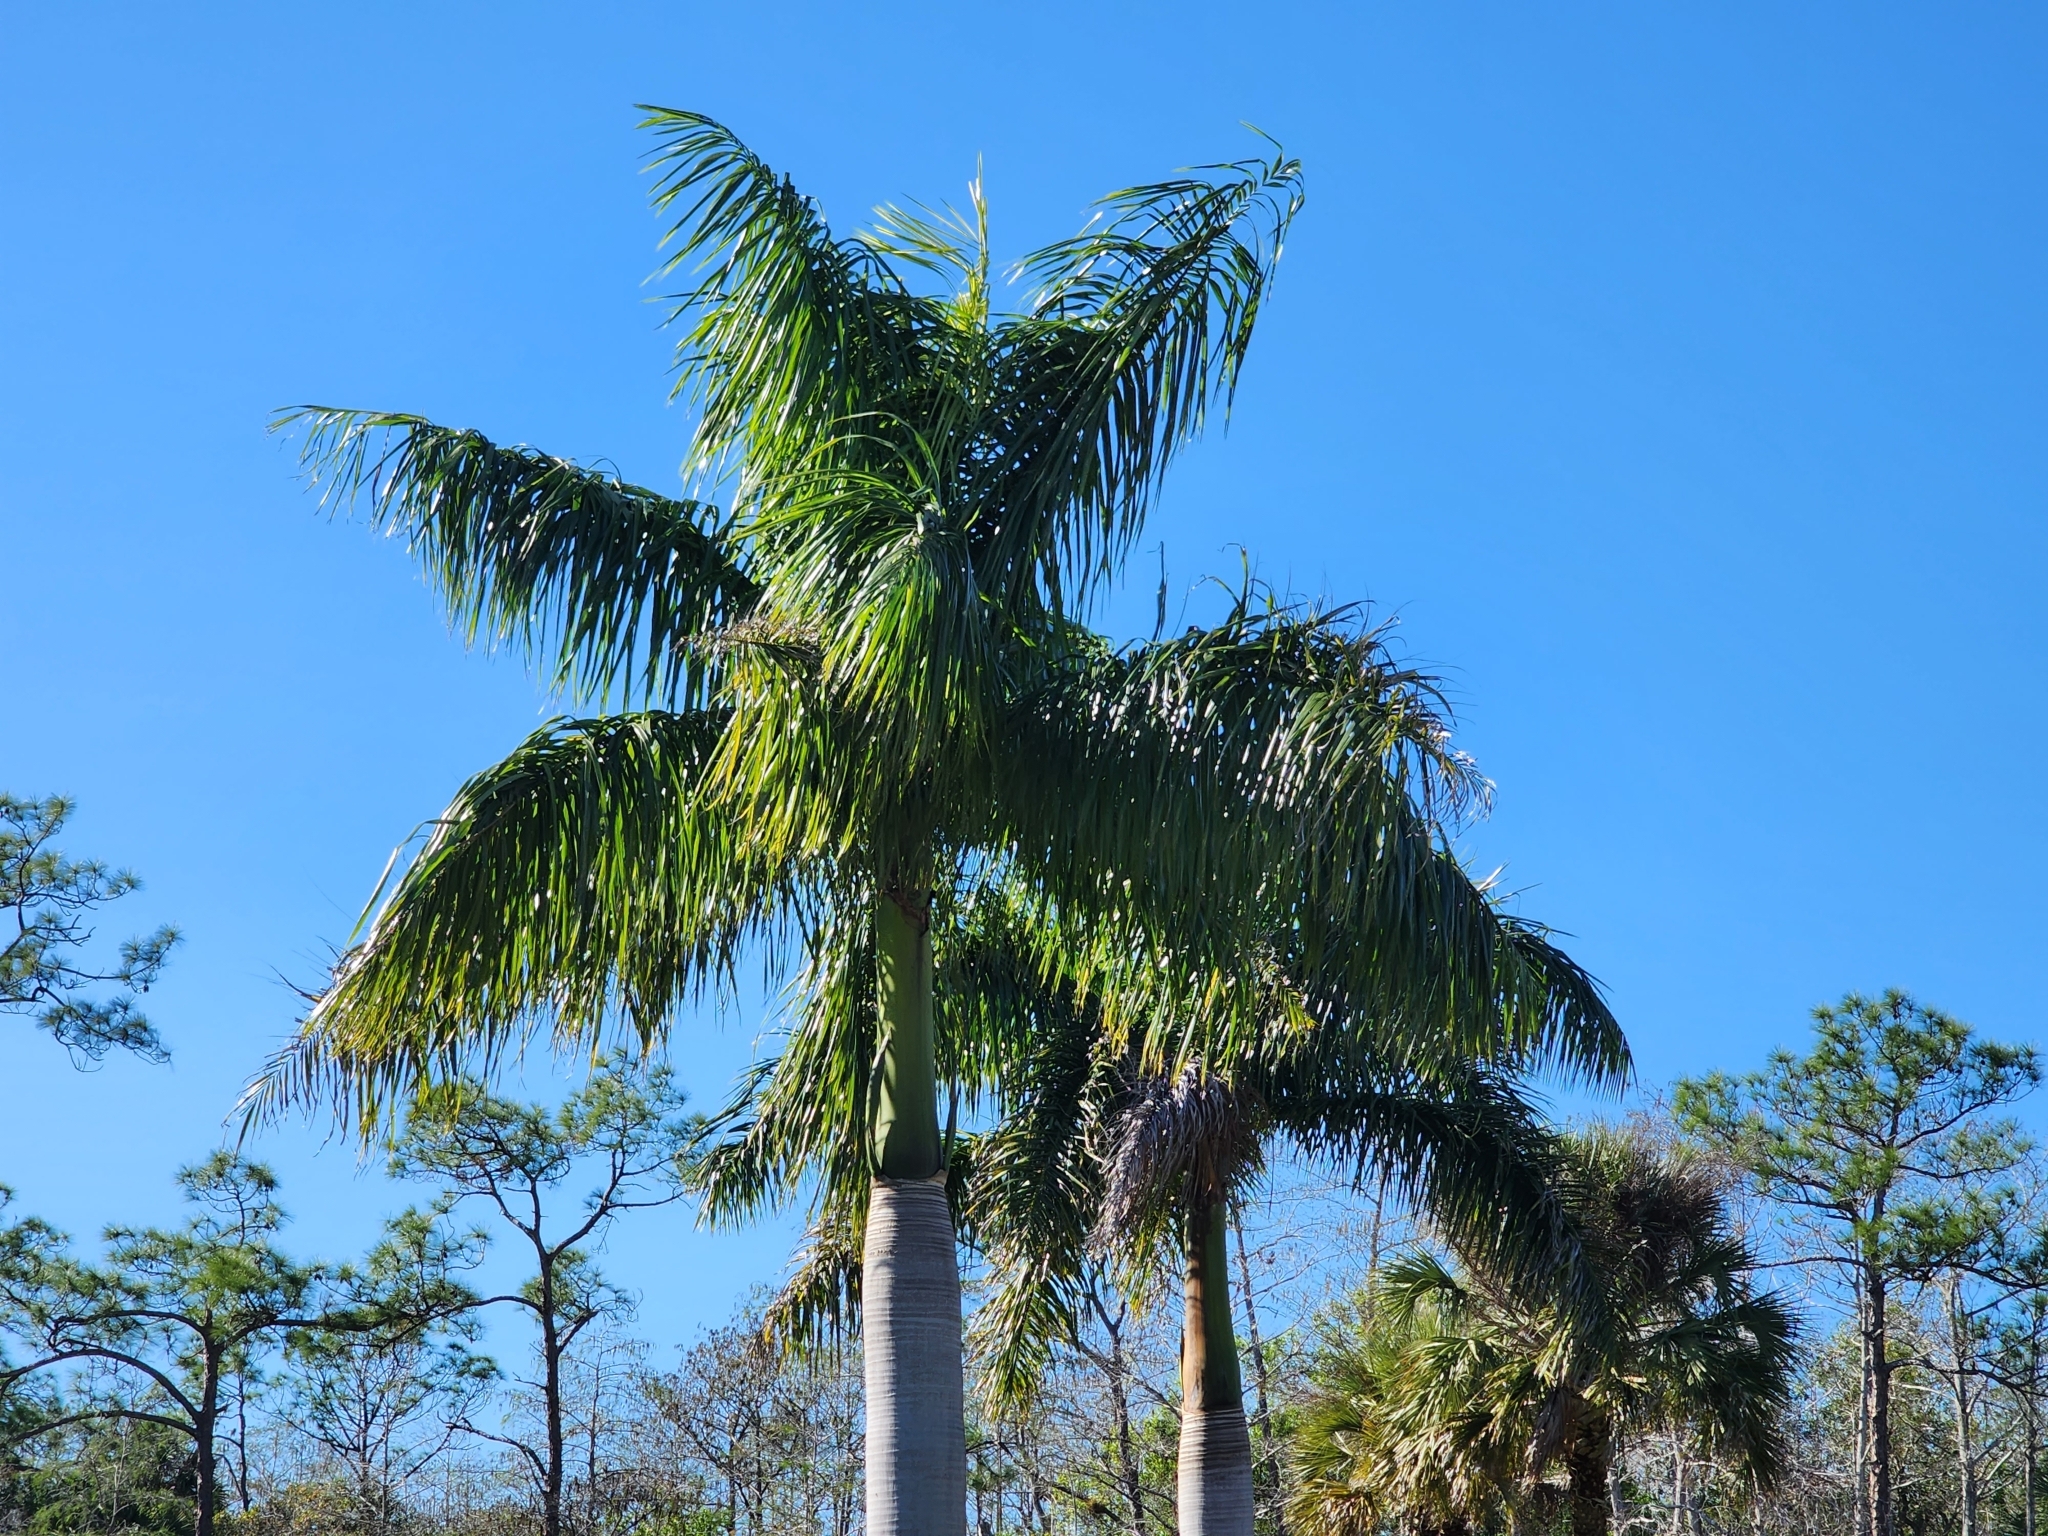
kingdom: Plantae
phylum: Tracheophyta
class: Liliopsida
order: Arecales
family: Arecaceae
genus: Roystonea
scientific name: Roystonea regia
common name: Florida royal palm
